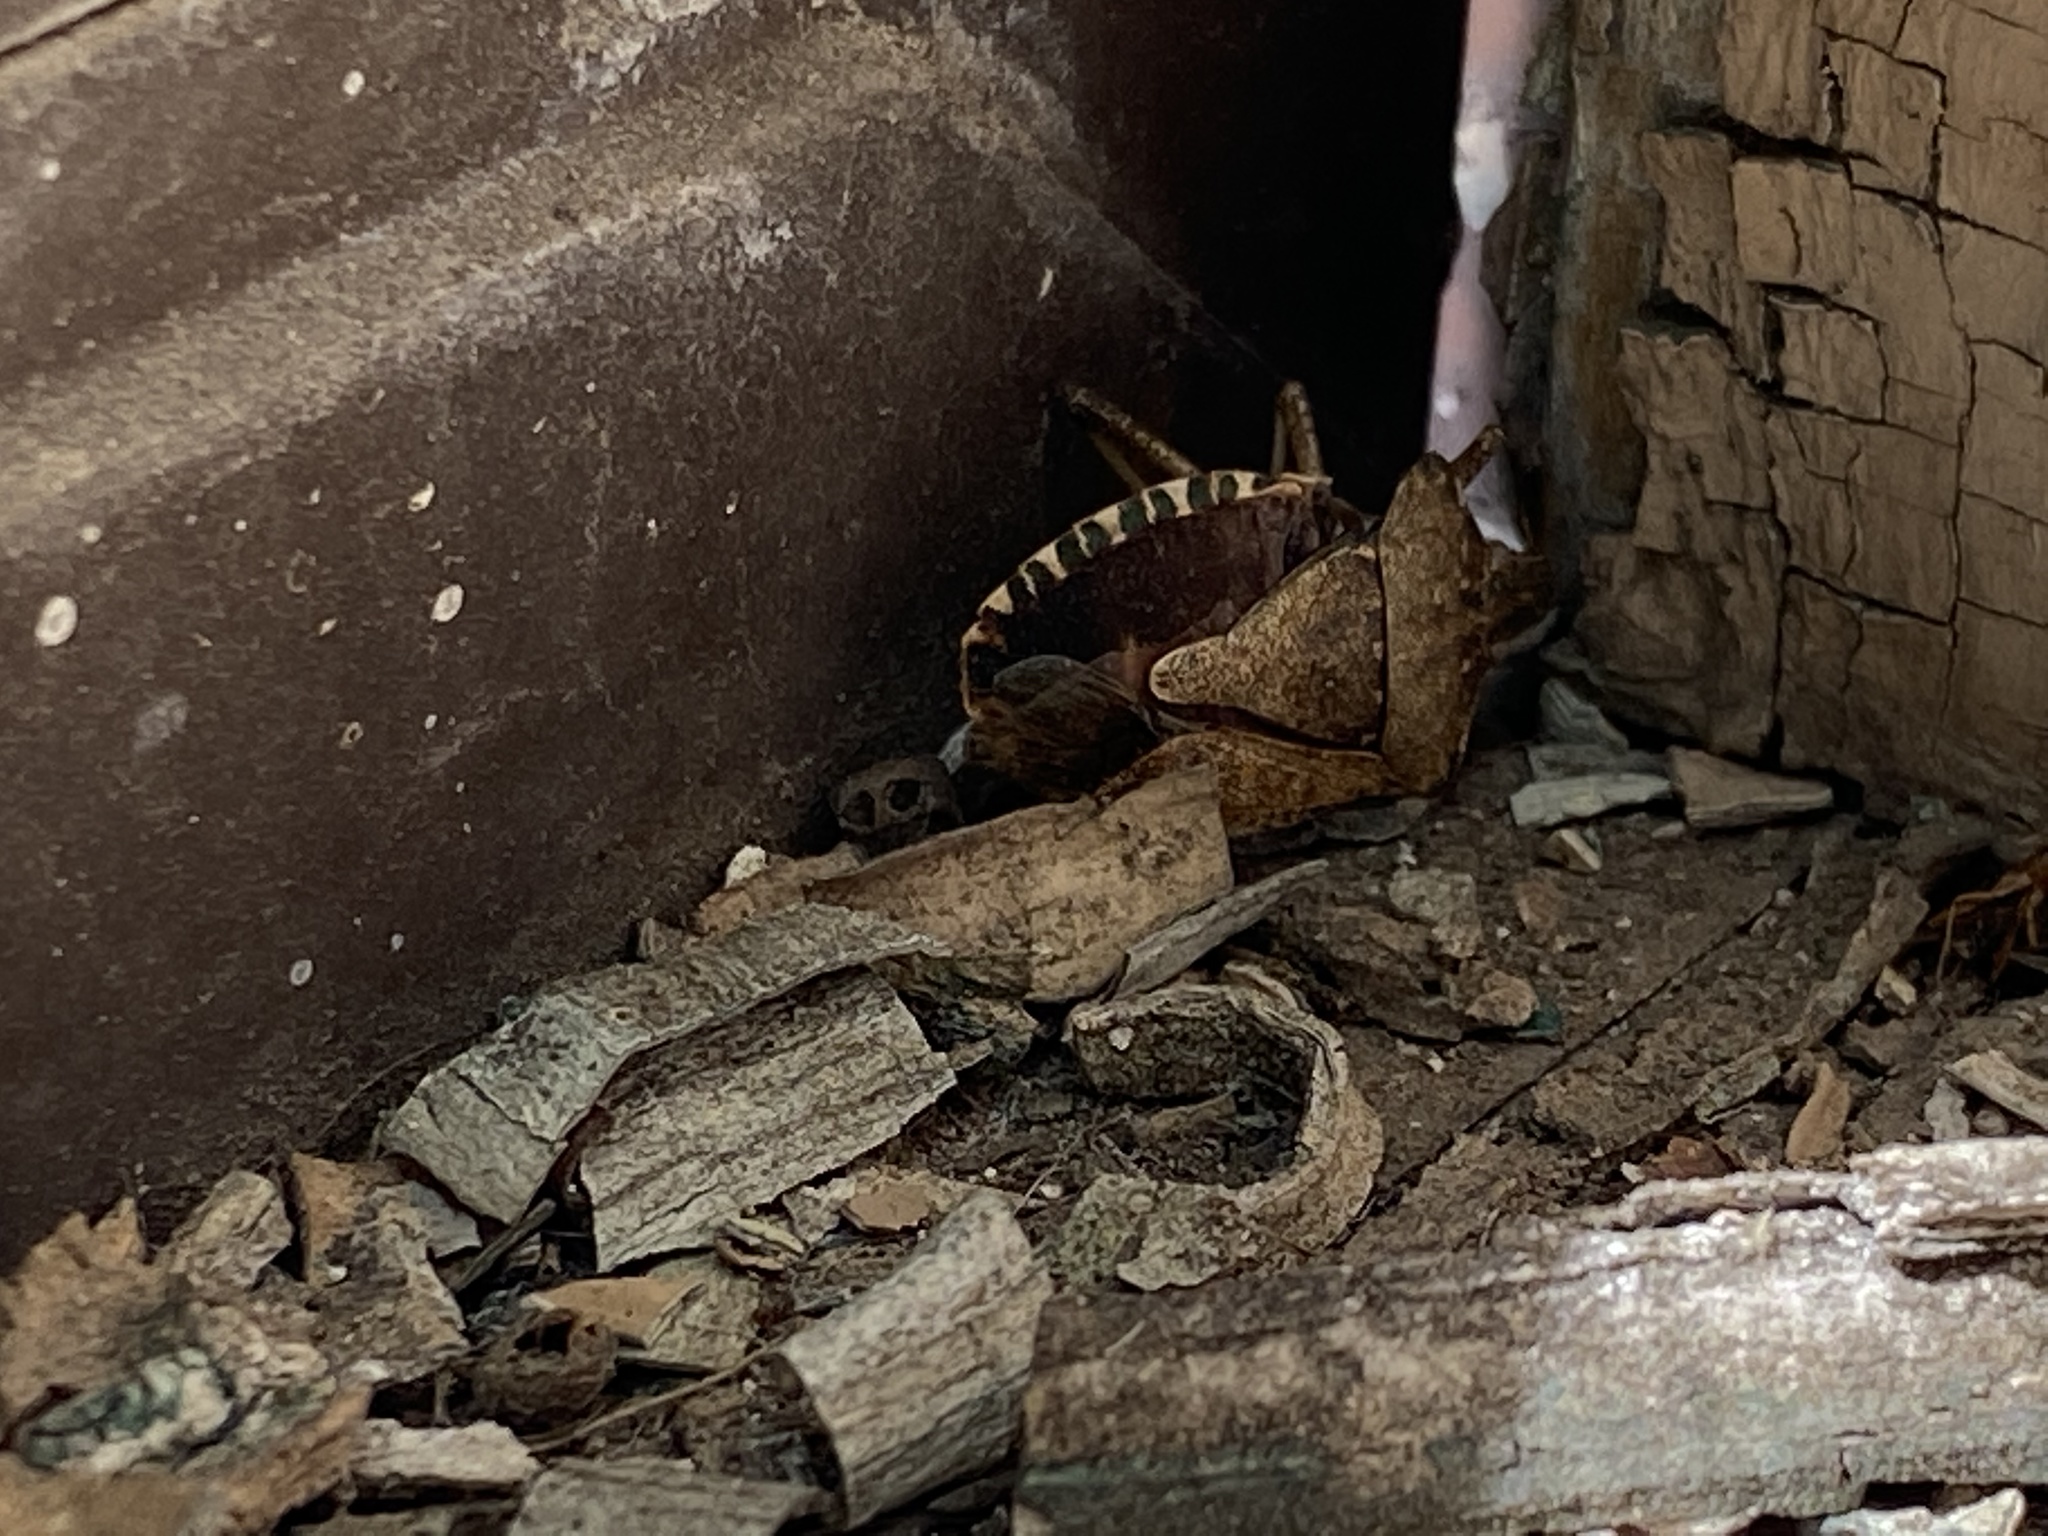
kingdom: Animalia
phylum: Arthropoda
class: Insecta
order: Hemiptera
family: Pentatomidae
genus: Halyomorpha
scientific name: Halyomorpha halys
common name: Brown marmorated stink bug
